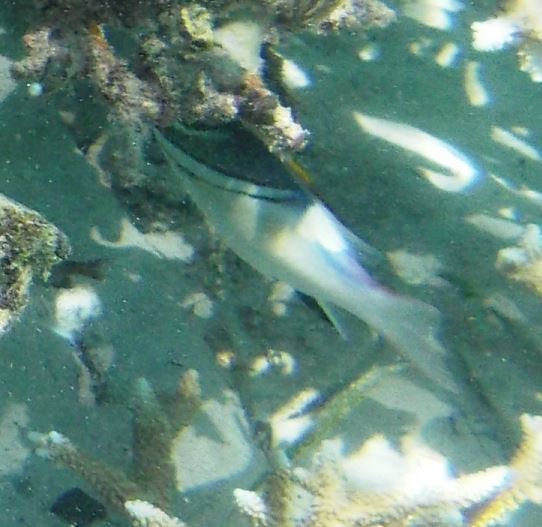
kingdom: Animalia
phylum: Chordata
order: Perciformes
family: Nemipteridae
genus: Scolopsis
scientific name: Scolopsis bilineata
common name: Two-lined monocle bream
